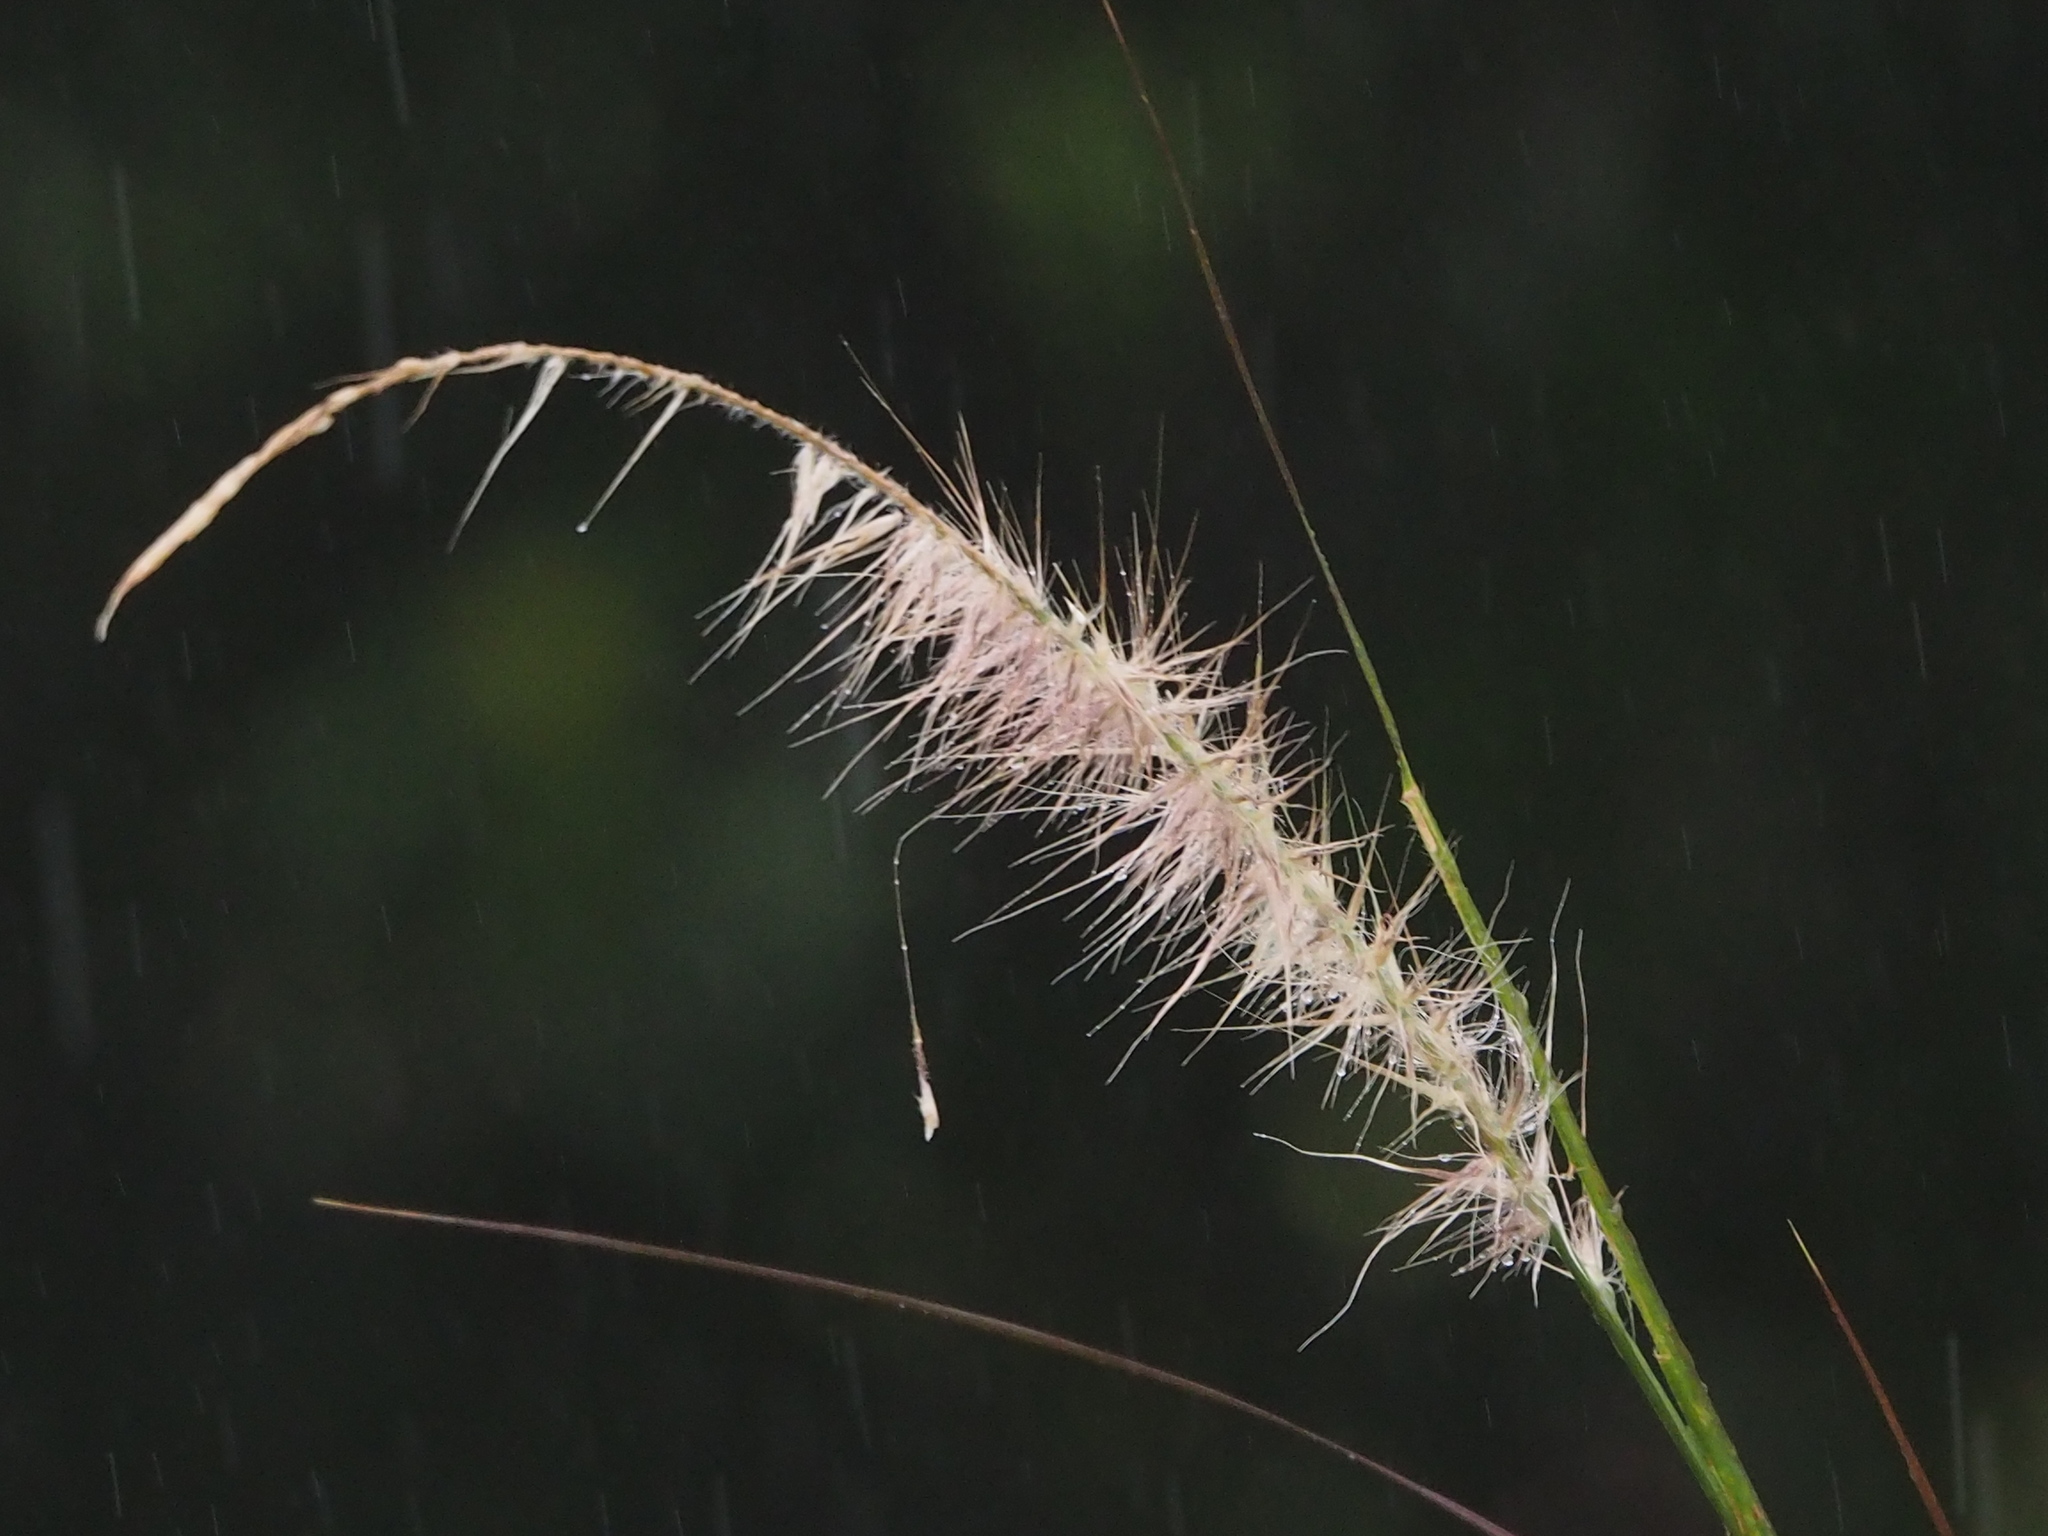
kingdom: Plantae
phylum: Tracheophyta
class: Liliopsida
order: Poales
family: Poaceae
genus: Cenchrus
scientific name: Cenchrus setaceus
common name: Crimson fountaingrass
